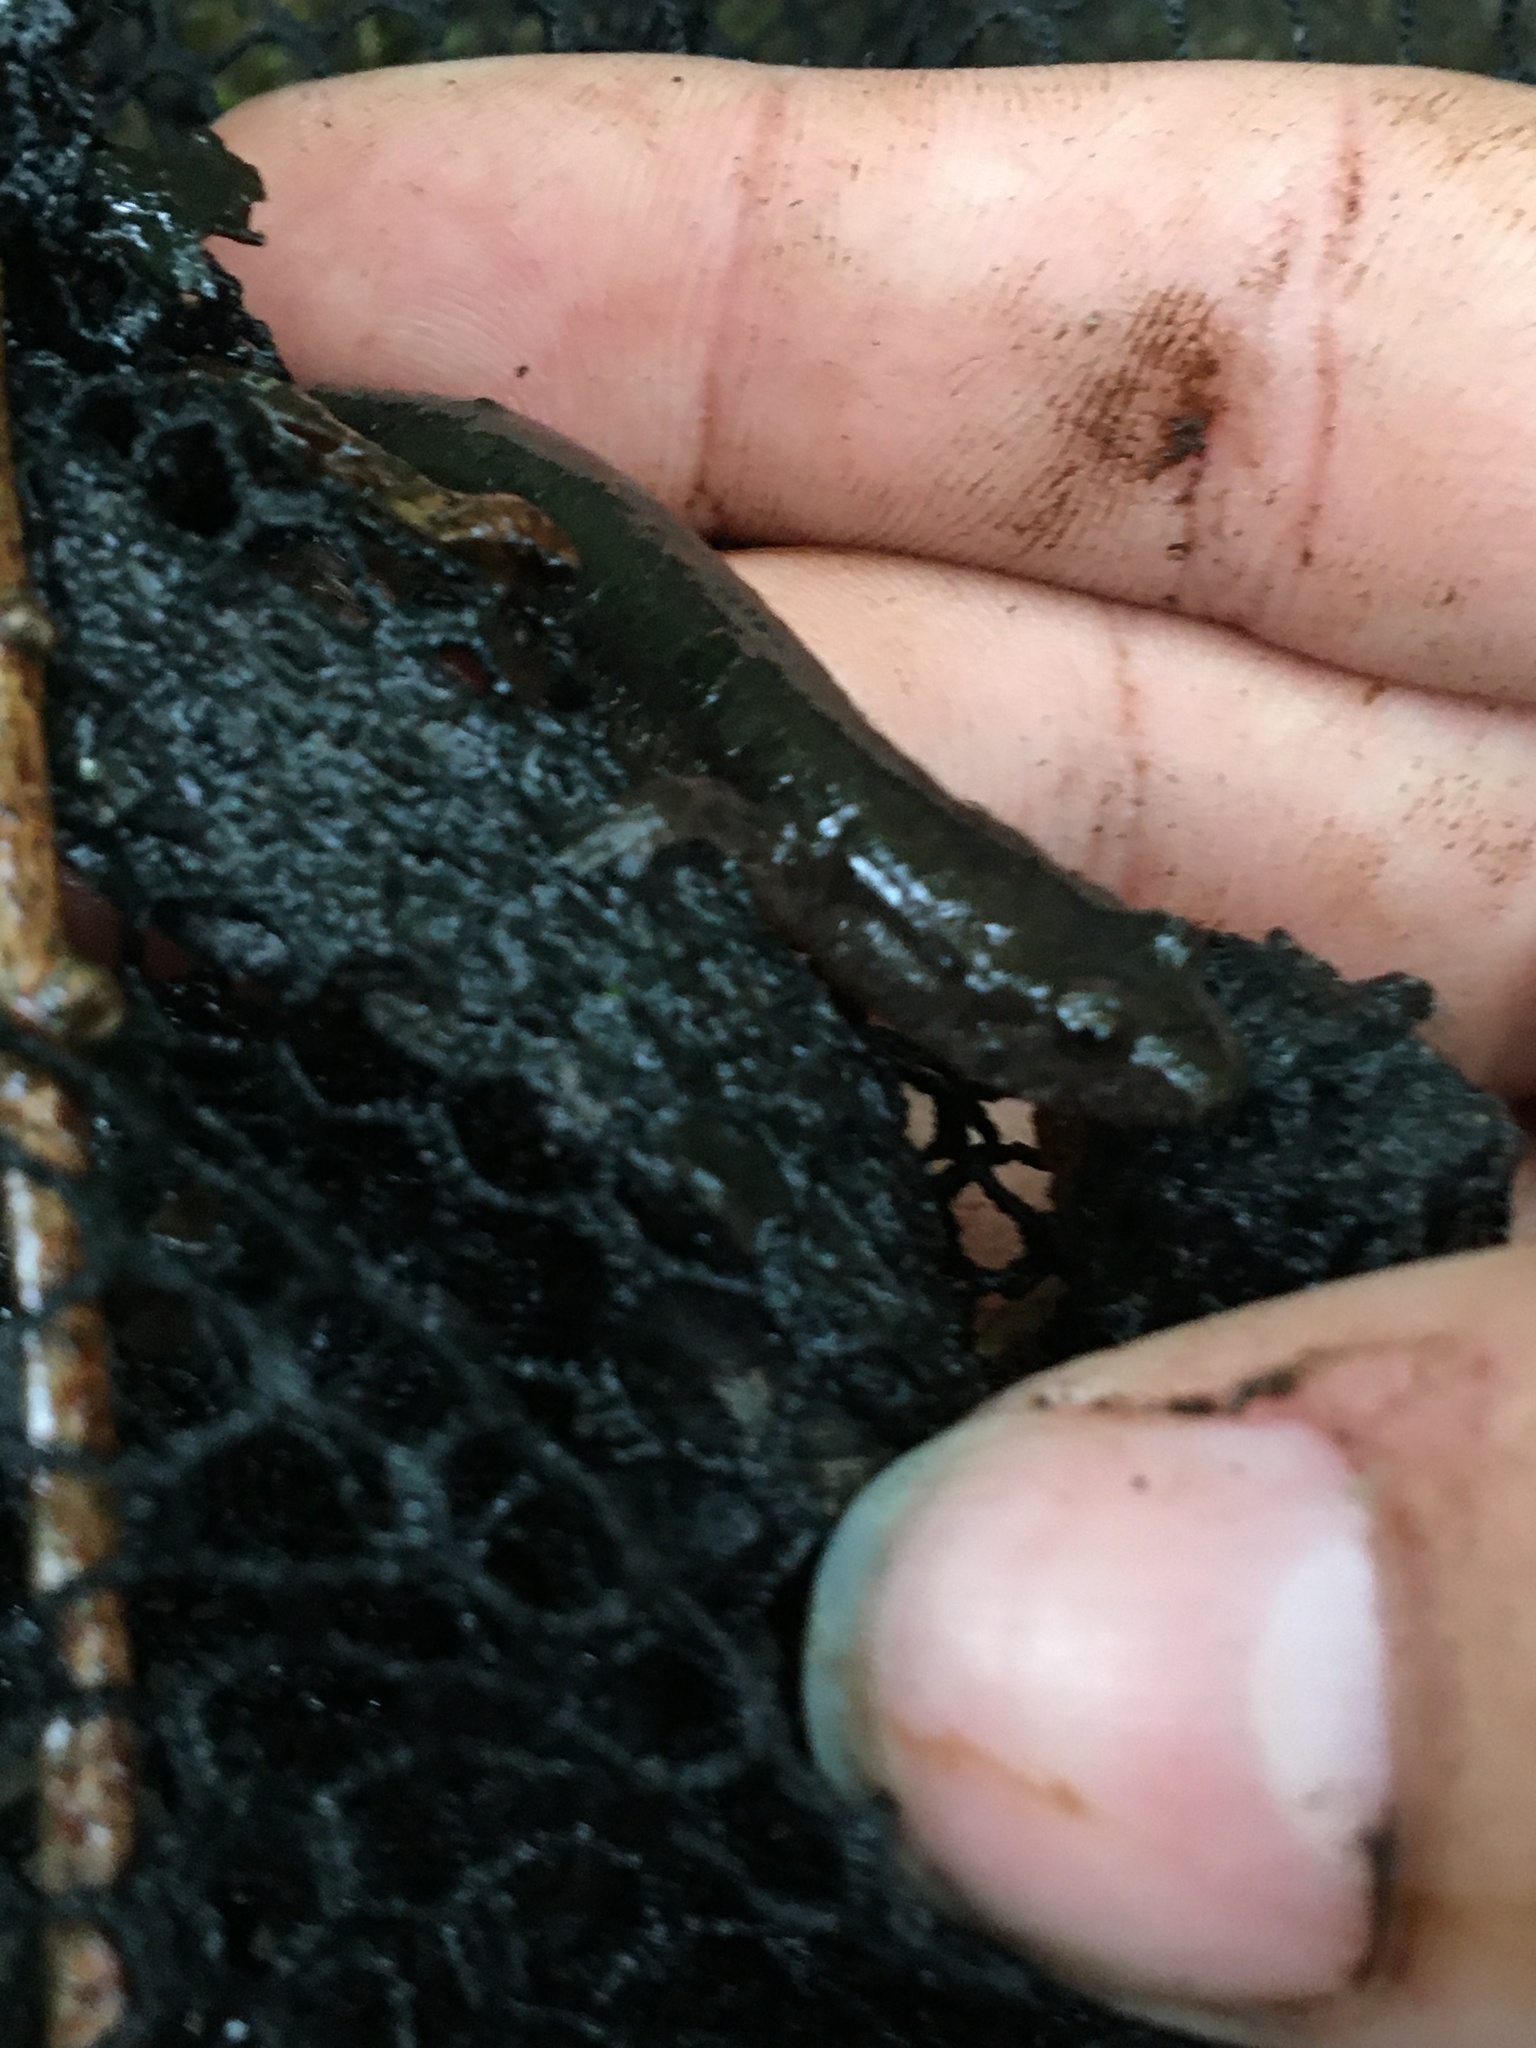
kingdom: Animalia
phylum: Chordata
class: Amphibia
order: Caudata
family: Plethodontidae
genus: Desmognathus
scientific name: Desmognathus fuscus
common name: Northern dusky salamander
